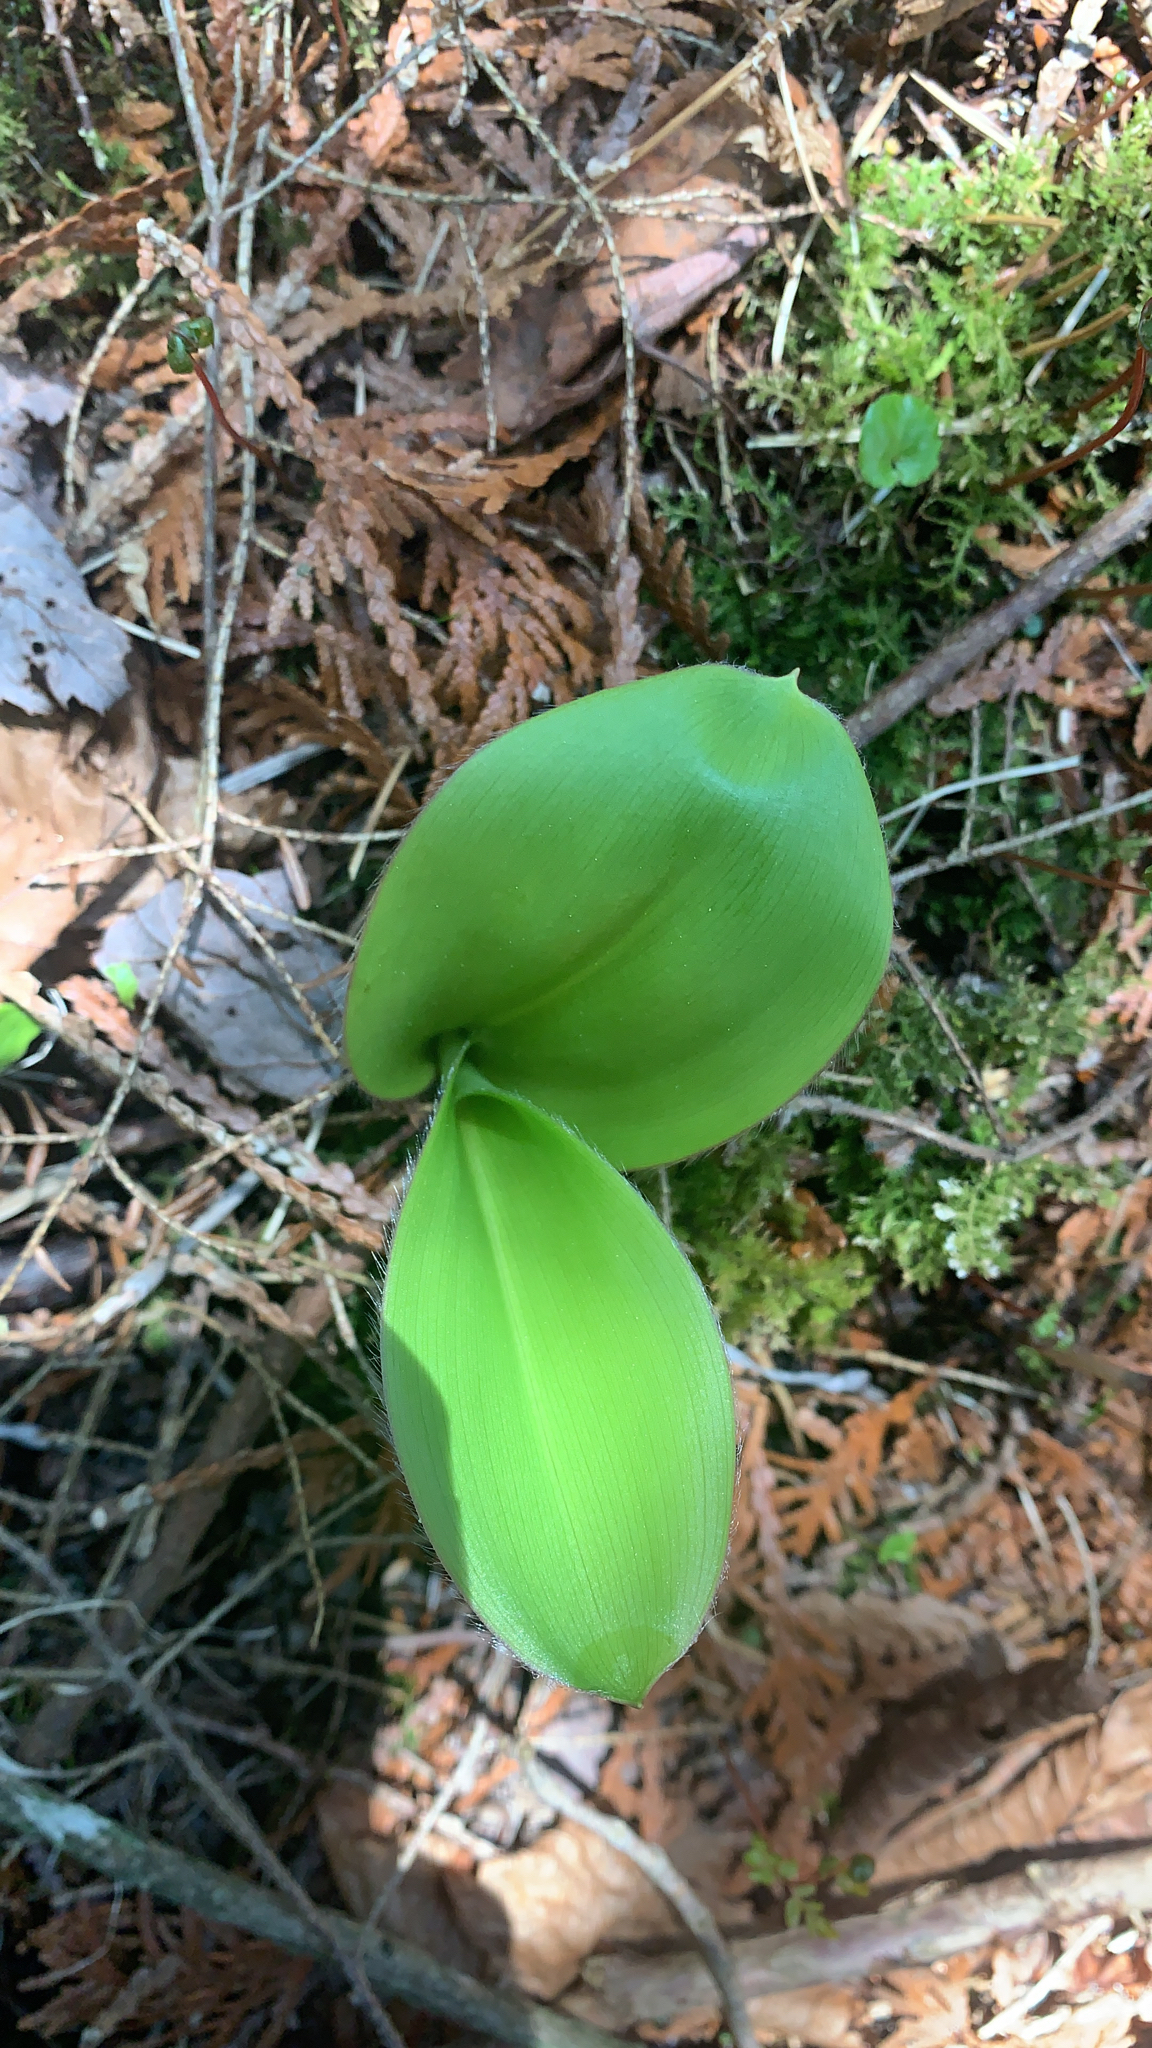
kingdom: Plantae
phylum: Tracheophyta
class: Liliopsida
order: Liliales
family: Liliaceae
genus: Clintonia
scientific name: Clintonia borealis
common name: Yellow clintonia
